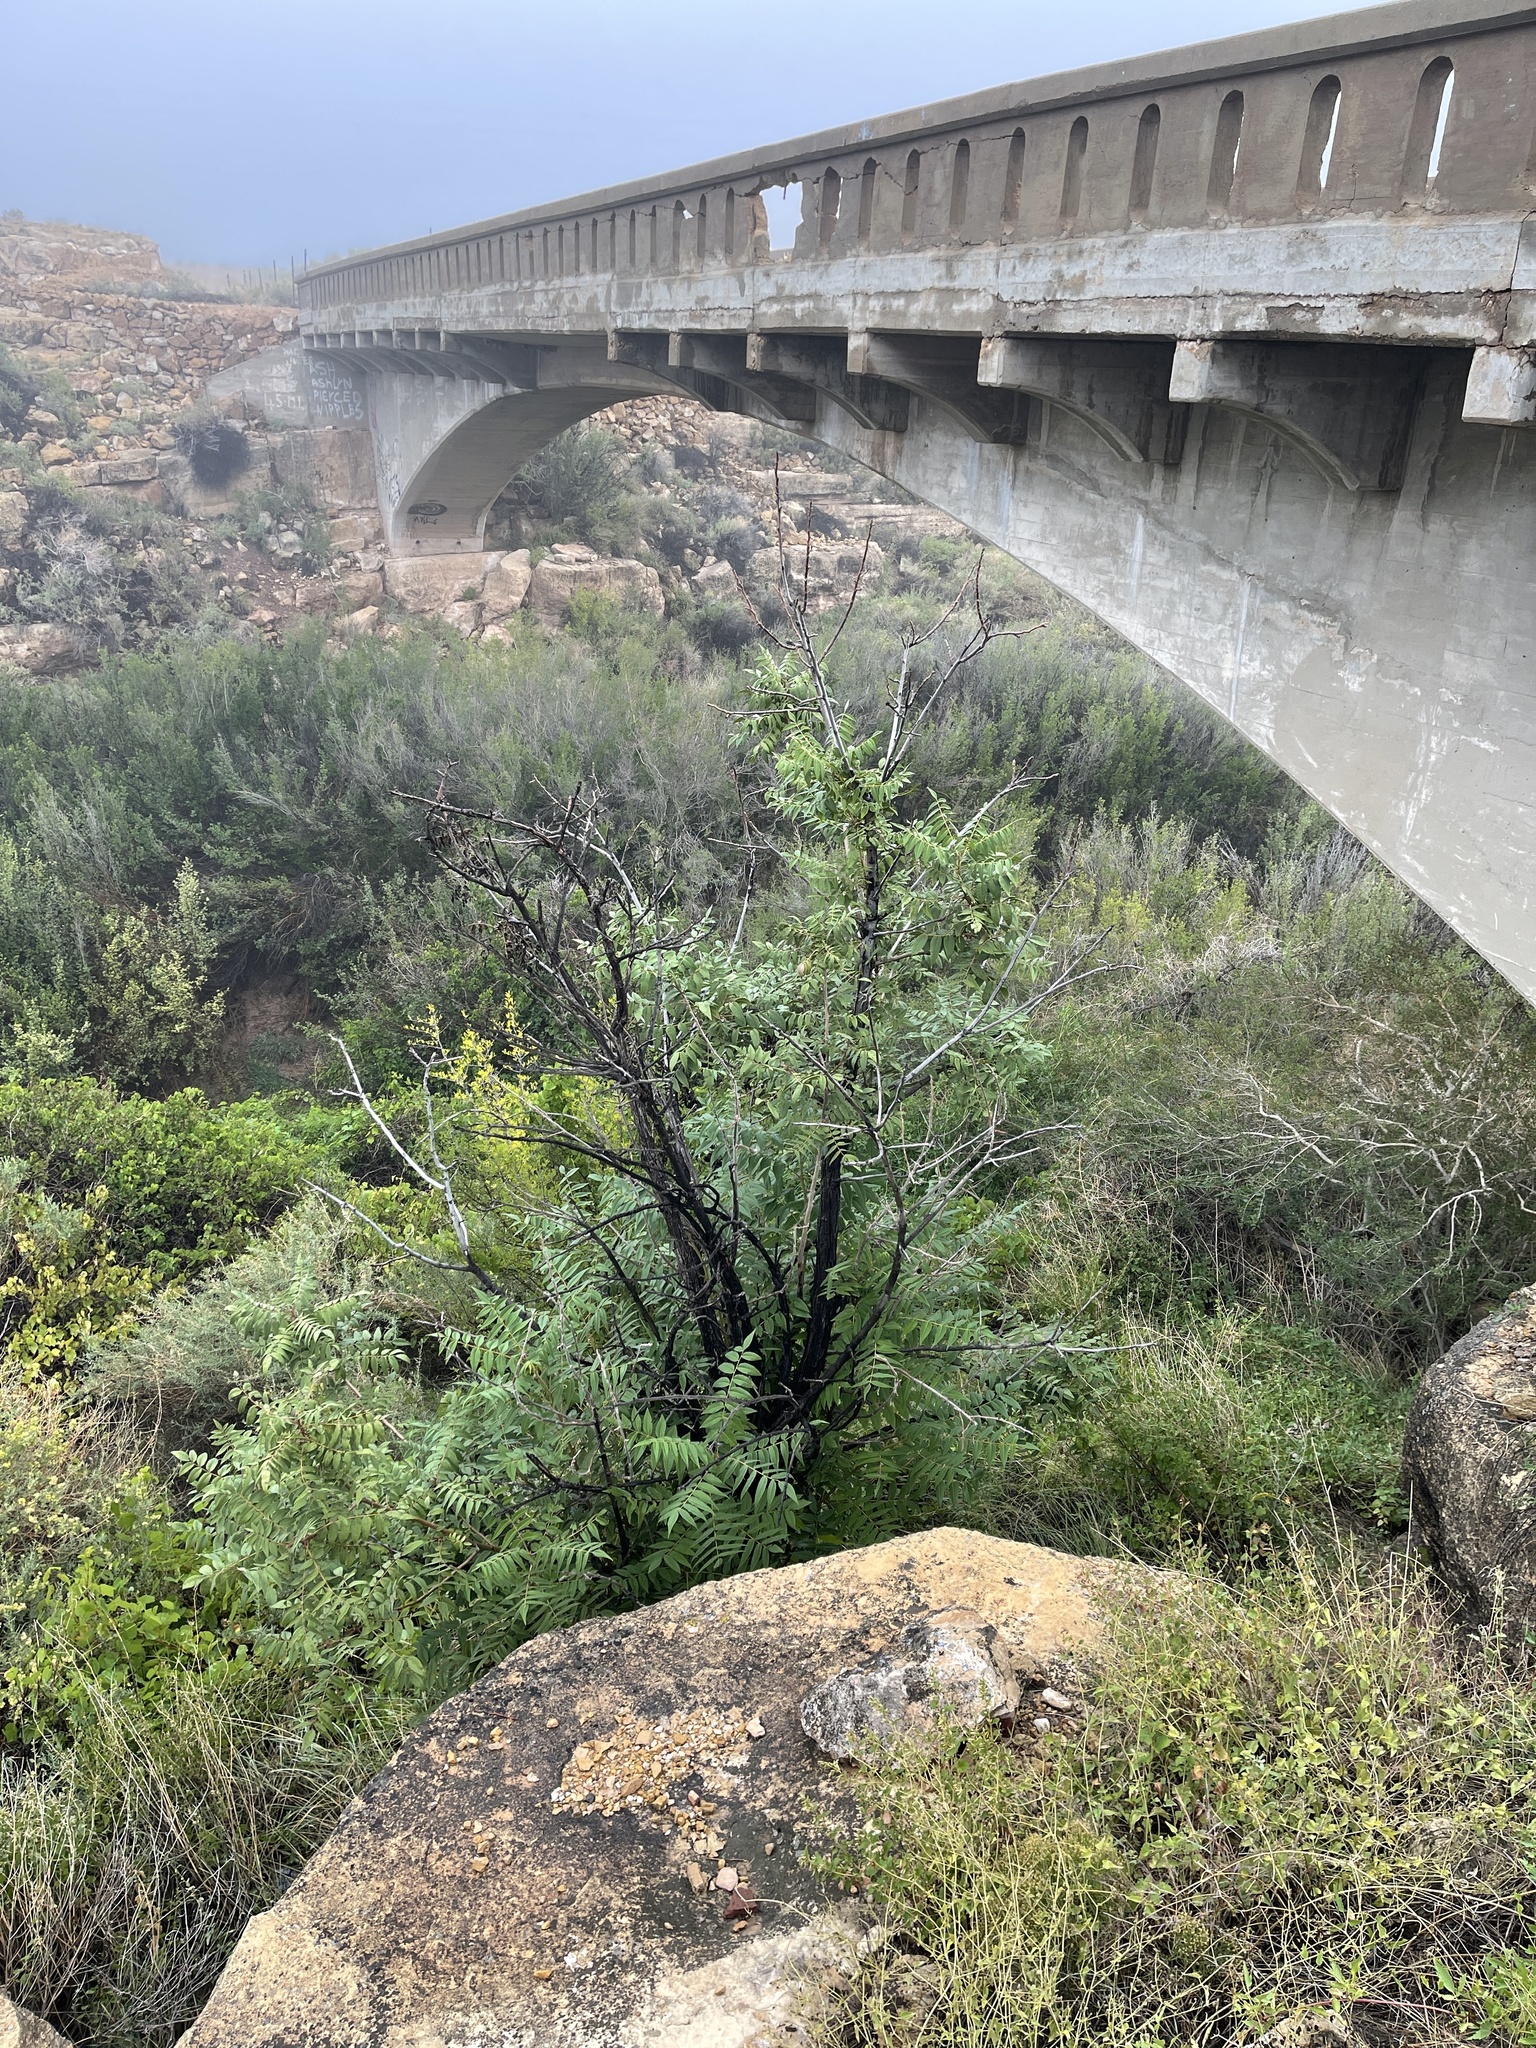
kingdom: Plantae
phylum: Tracheophyta
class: Magnoliopsida
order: Fagales
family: Juglandaceae
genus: Juglans
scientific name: Juglans major
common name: Arizona walnut
